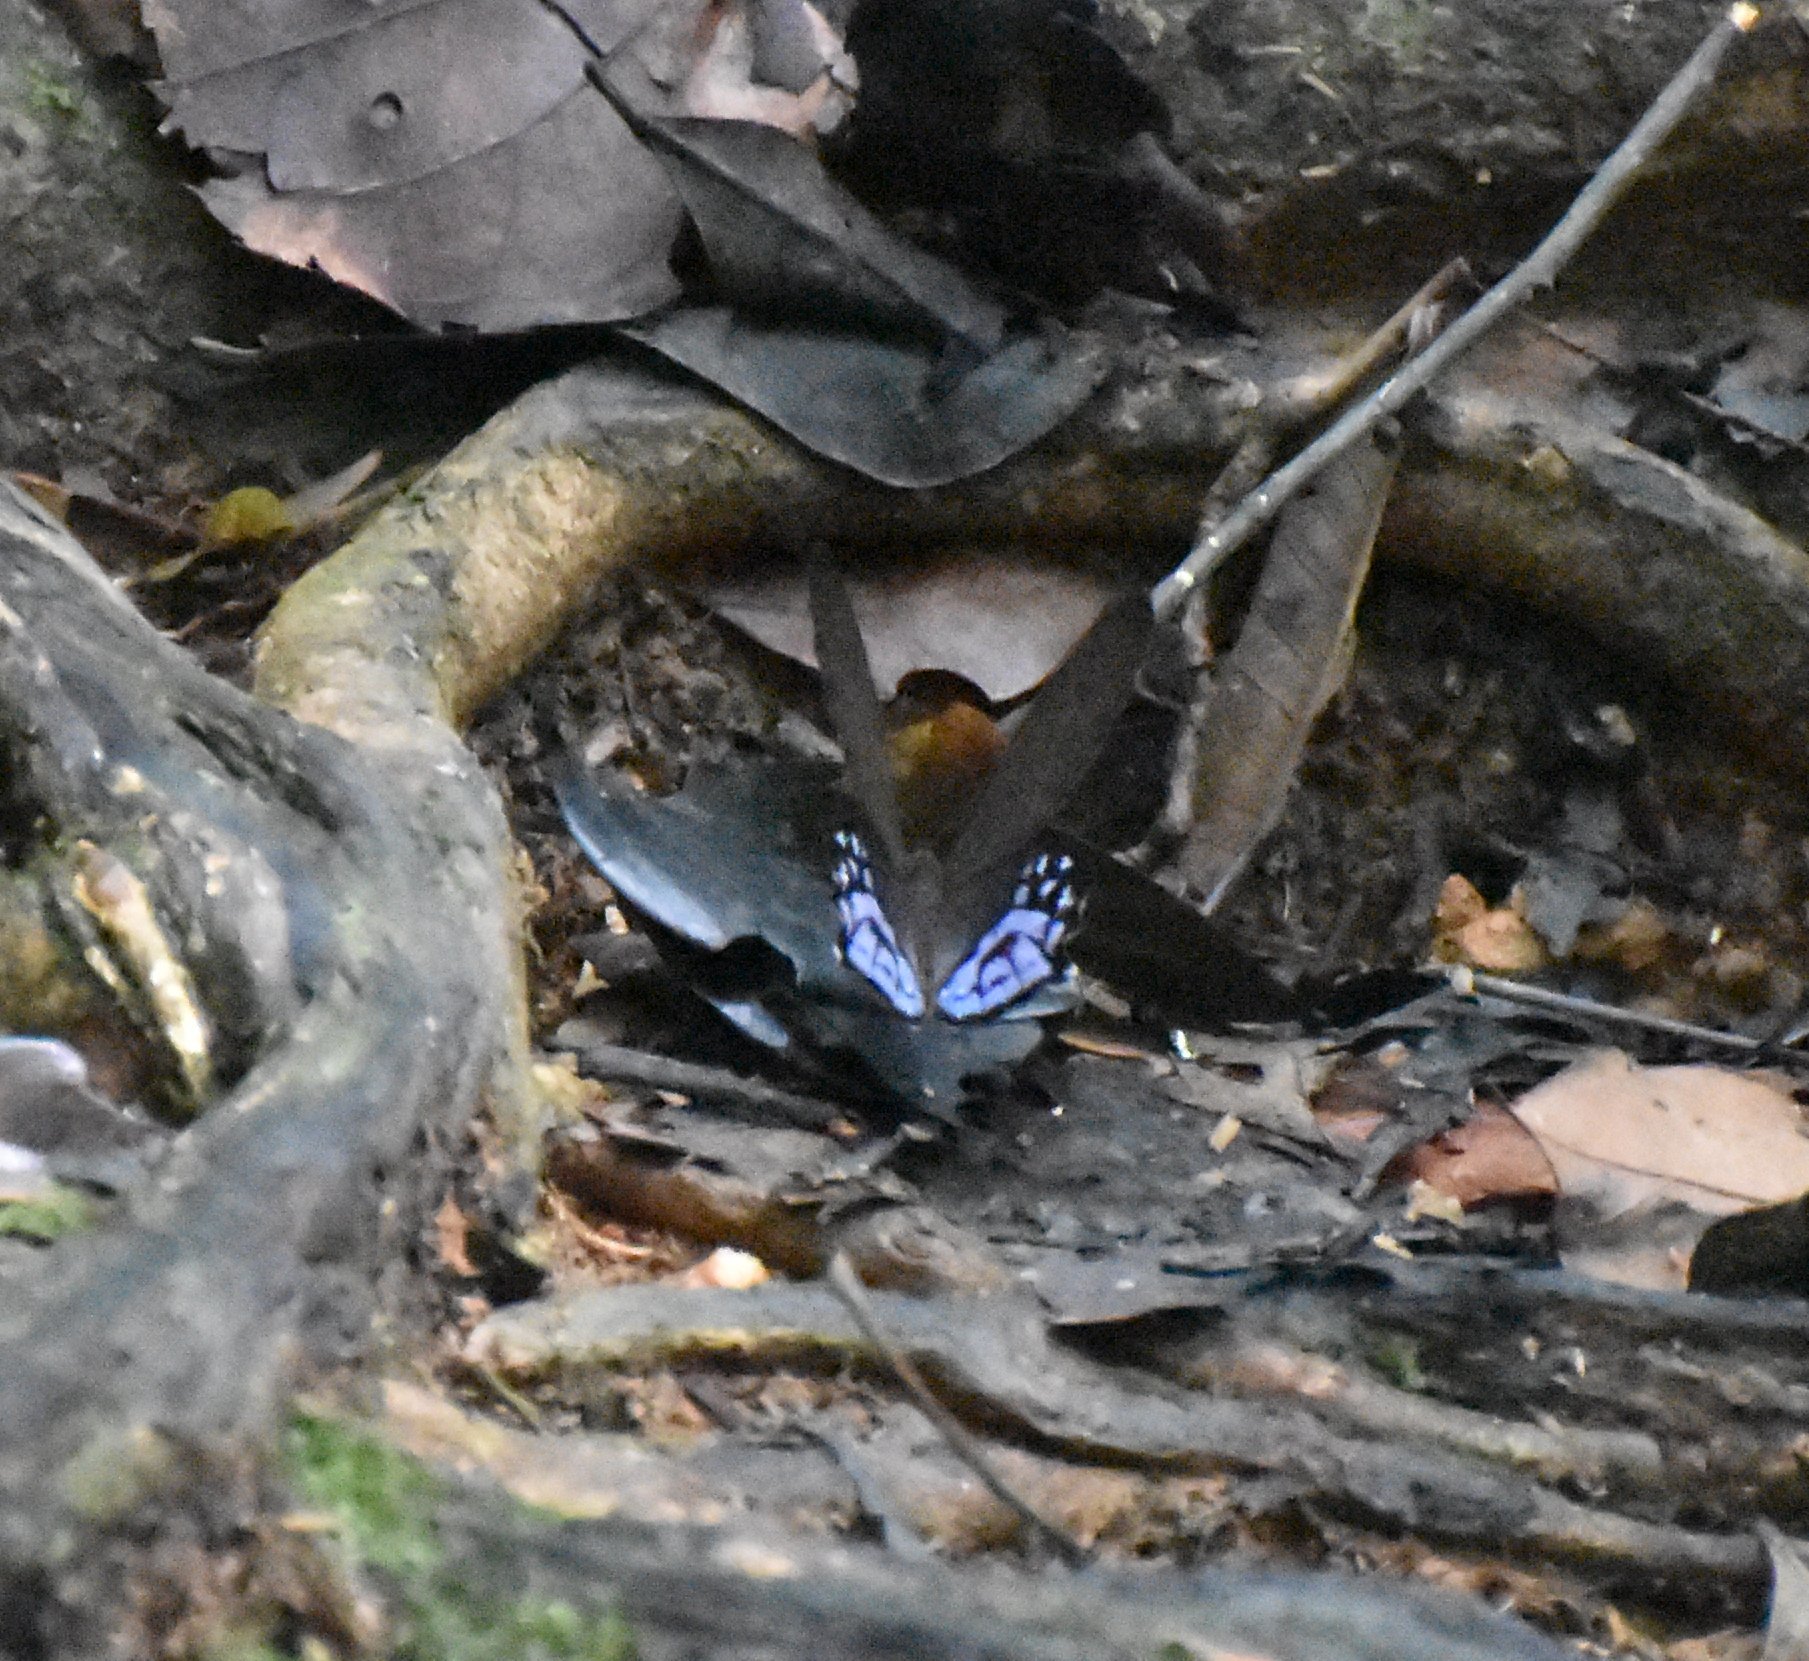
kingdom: Animalia
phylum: Arthropoda
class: Insecta
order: Lepidoptera
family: Nymphalidae
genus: Pierella
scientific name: Pierella dracontis
